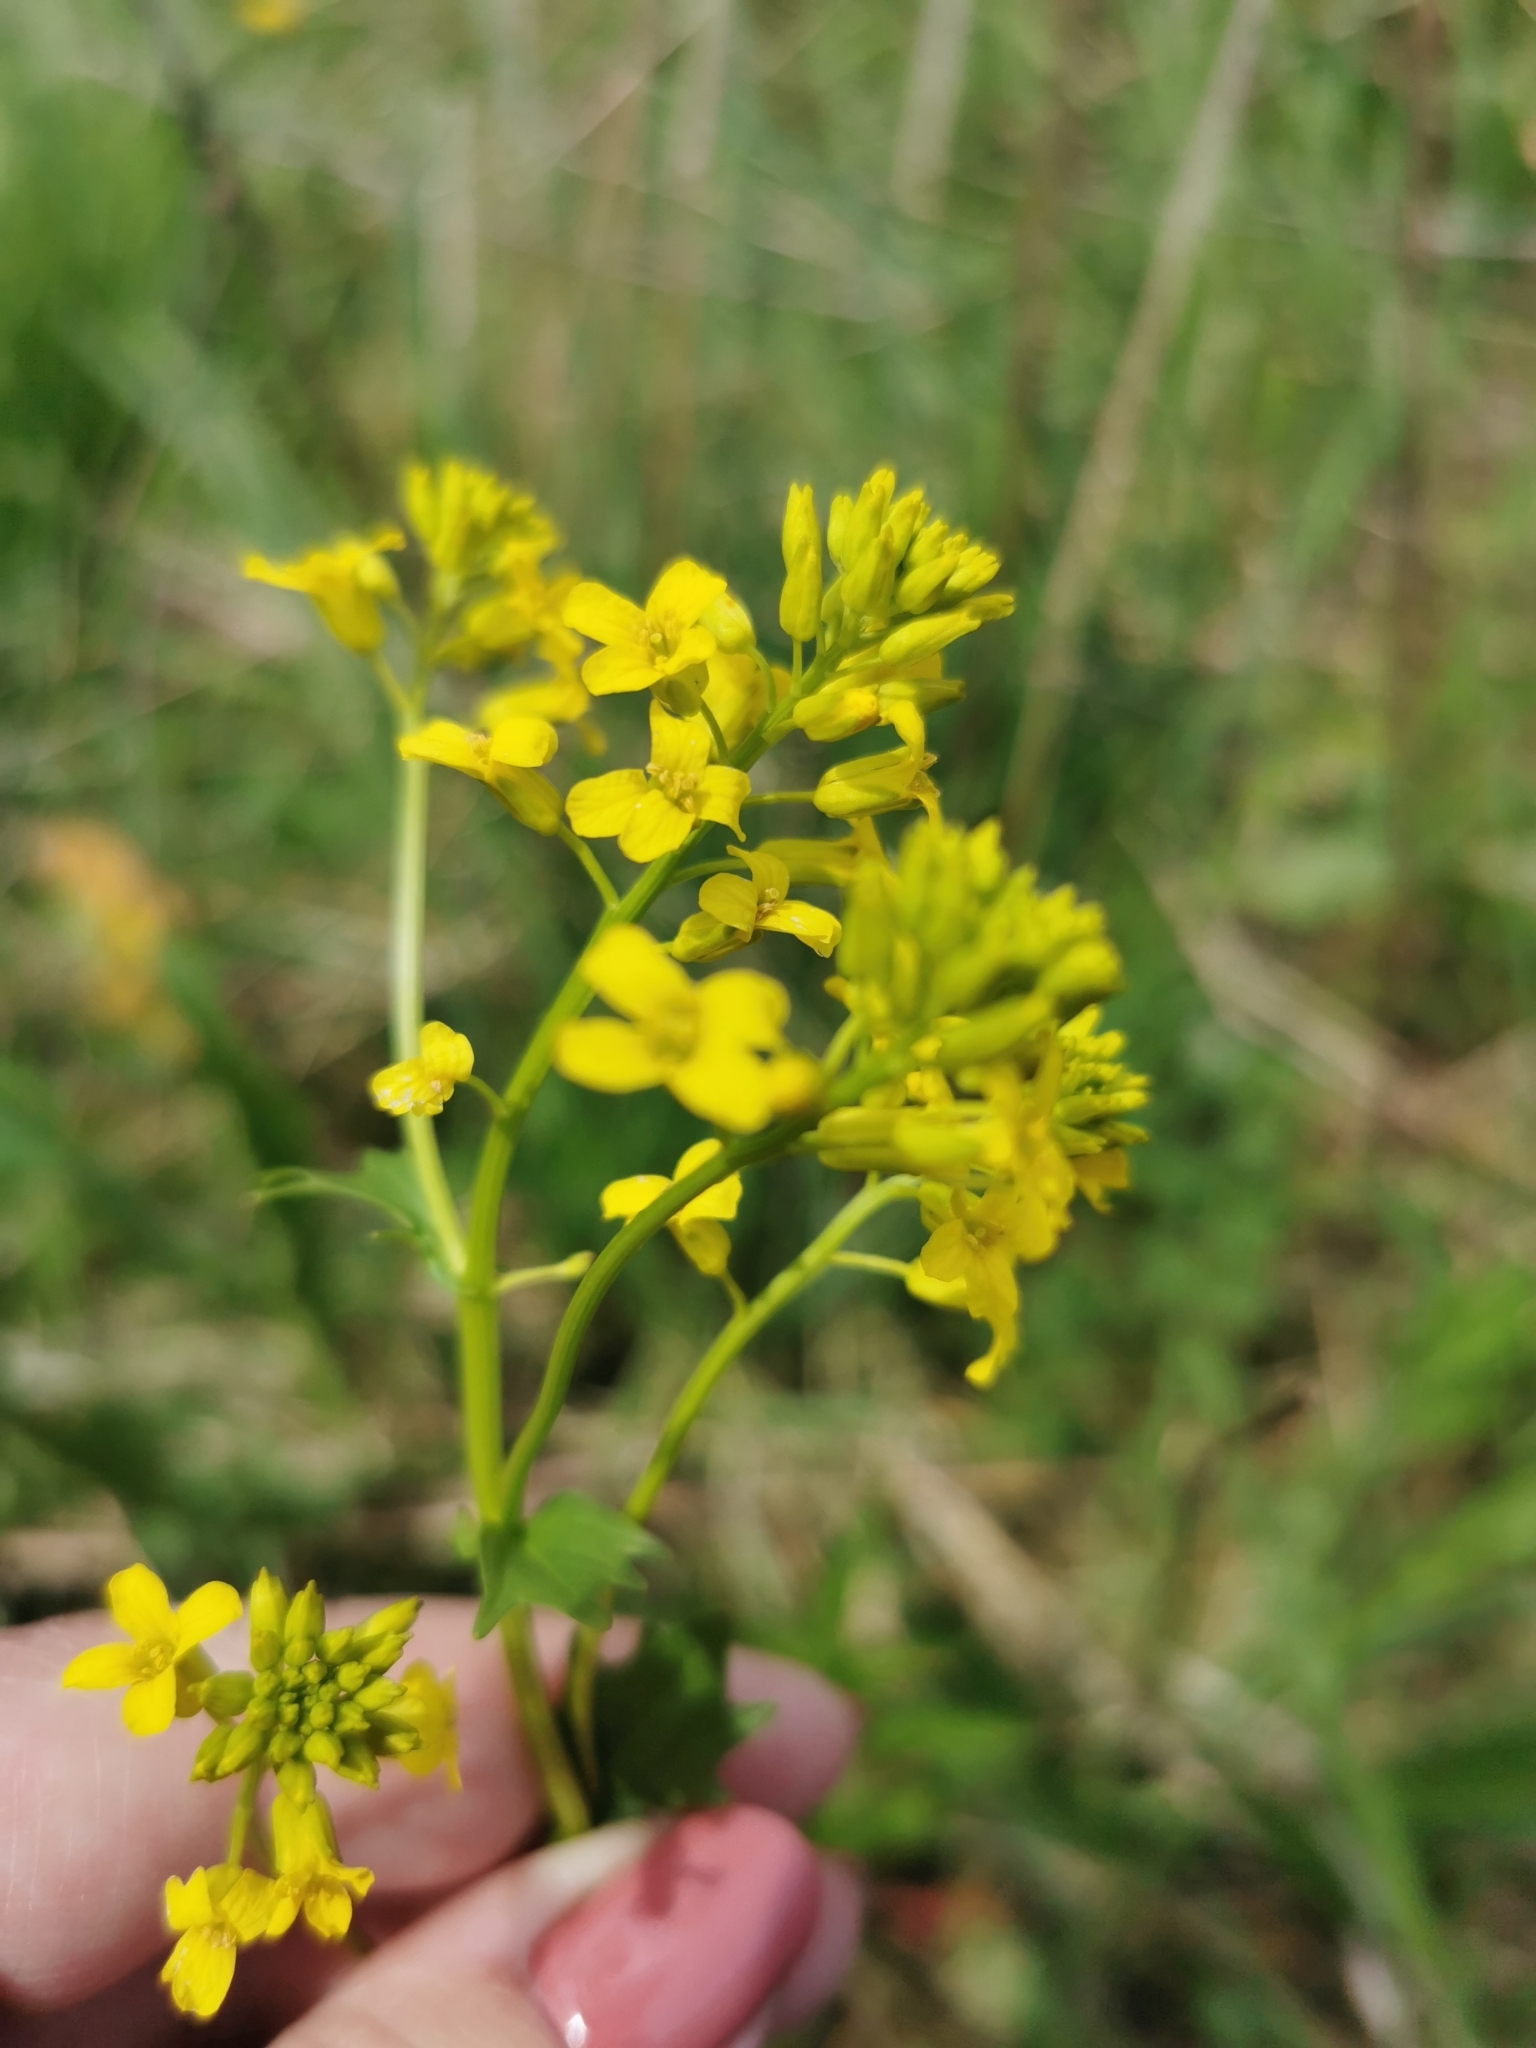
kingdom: Plantae
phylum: Tracheophyta
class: Magnoliopsida
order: Brassicales
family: Brassicaceae
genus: Barbarea
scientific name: Barbarea vulgaris
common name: Cressy-greens
